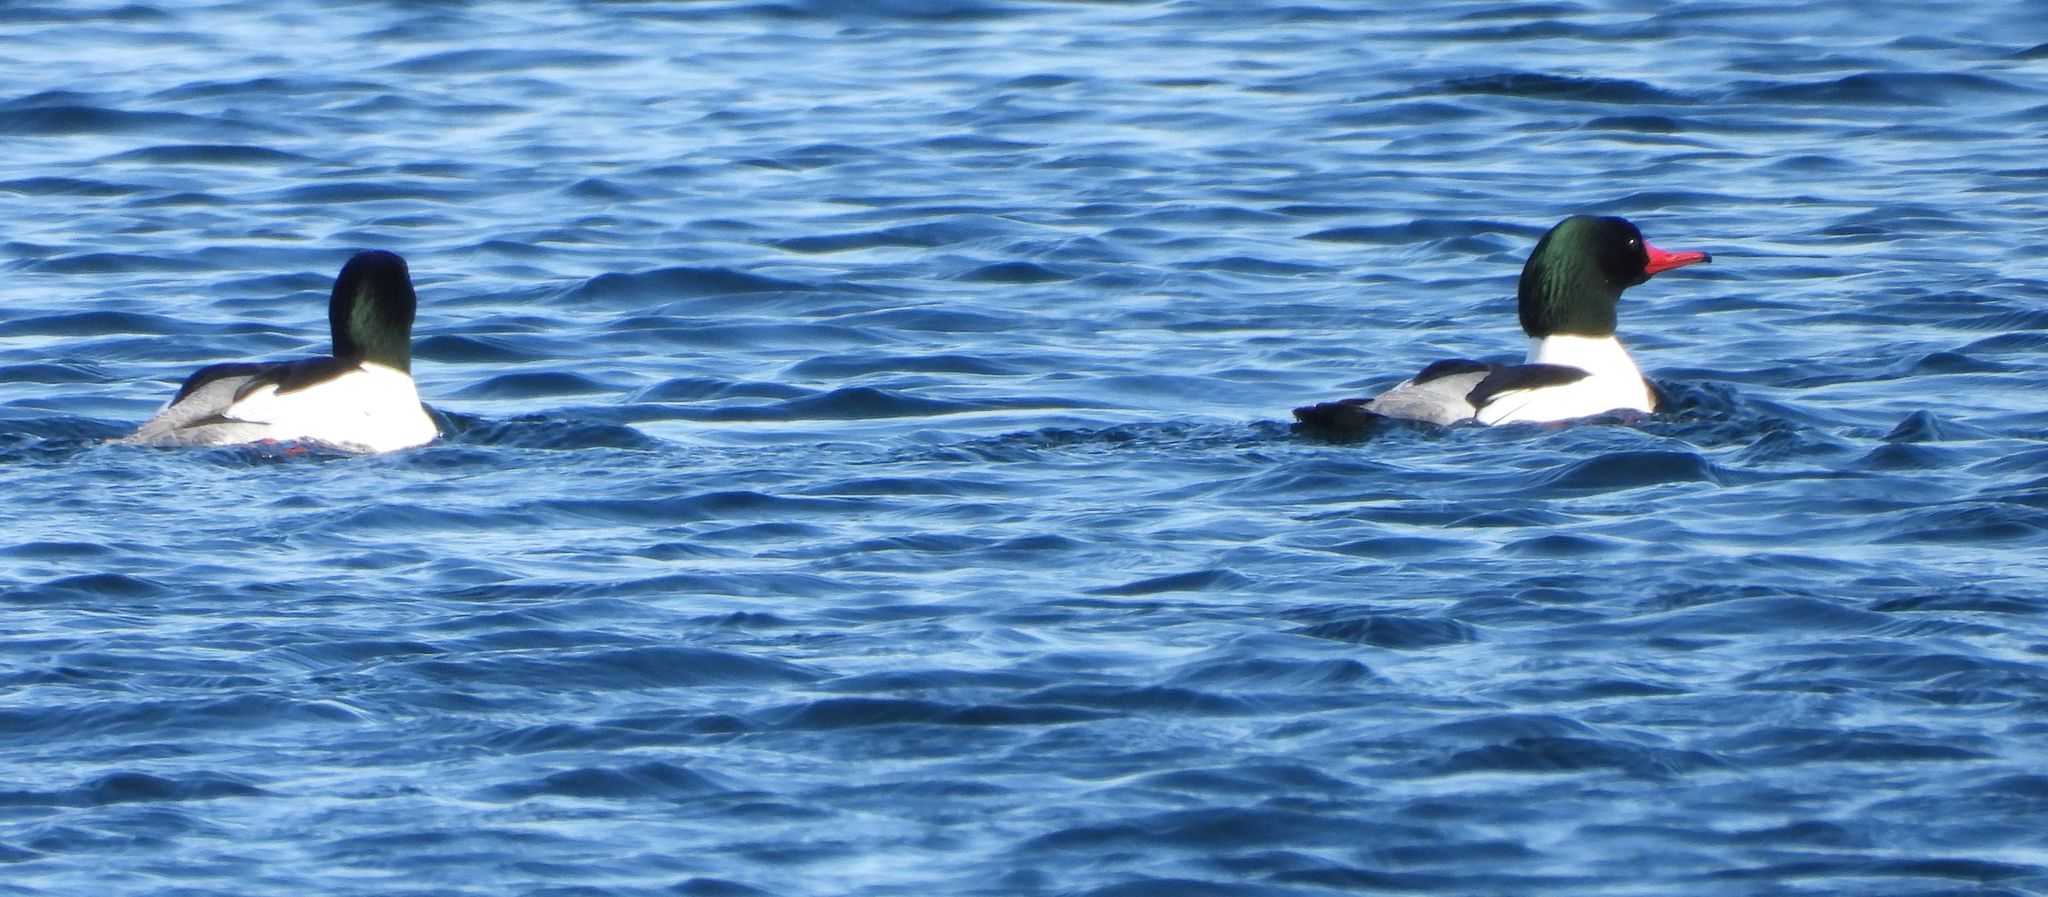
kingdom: Animalia
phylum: Chordata
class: Aves
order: Anseriformes
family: Anatidae
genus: Mergus
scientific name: Mergus merganser
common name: Common merganser
